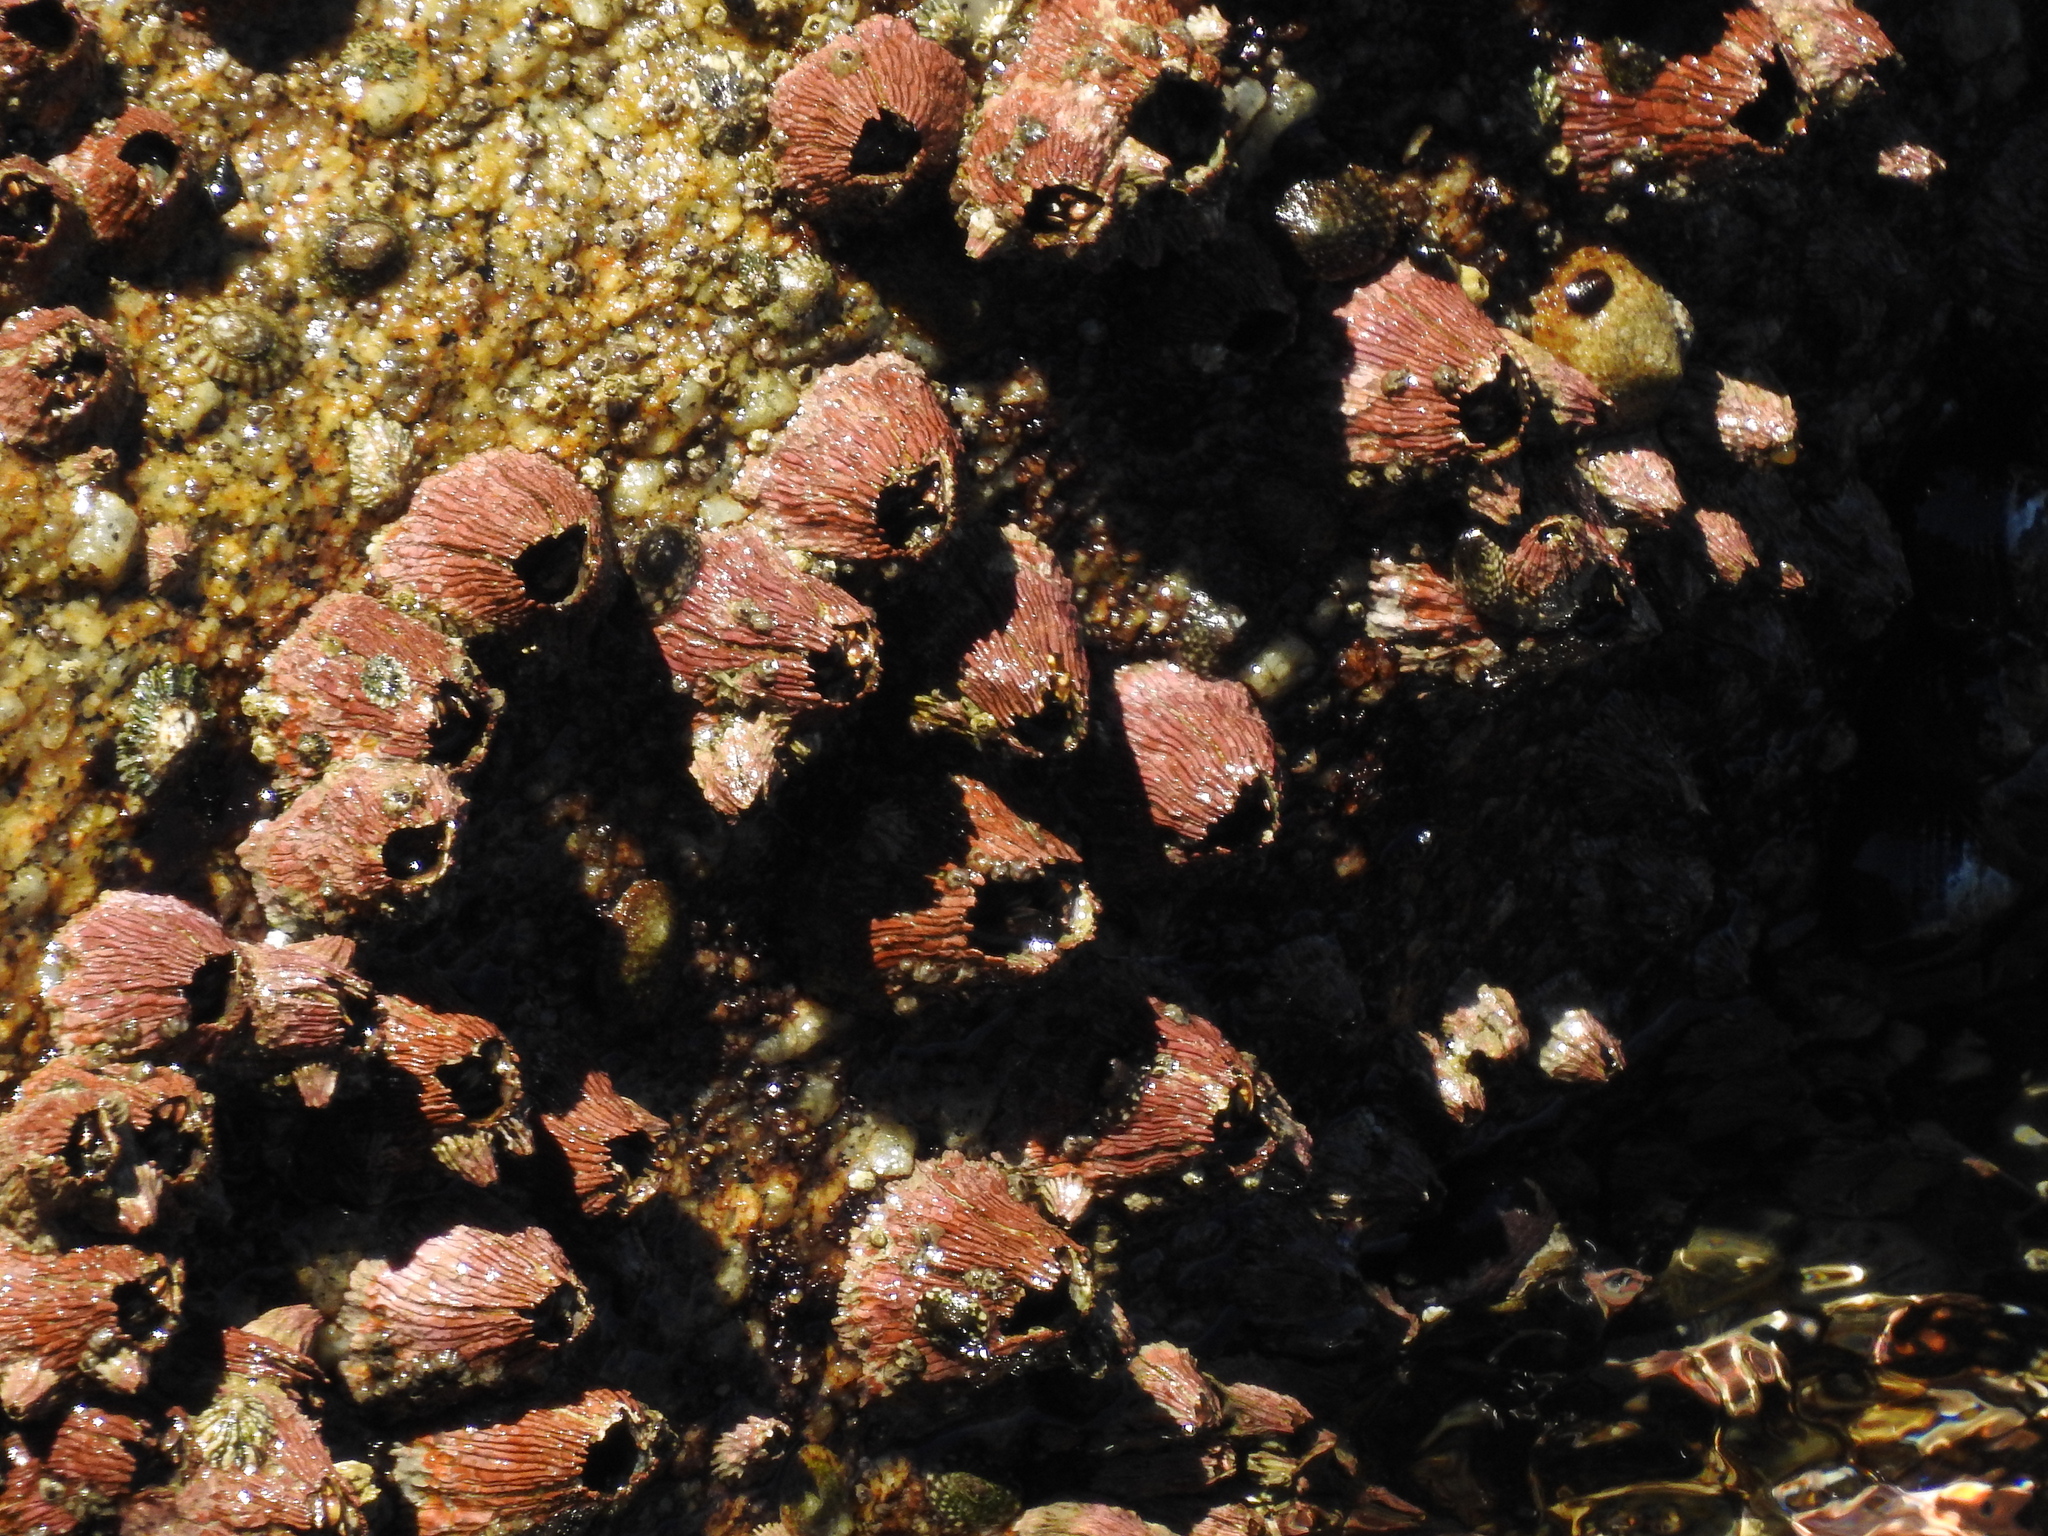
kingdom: Animalia
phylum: Arthropoda
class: Maxillopoda
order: Sessilia
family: Tetraclitidae
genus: Tetraclita
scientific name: Tetraclita rubescens
